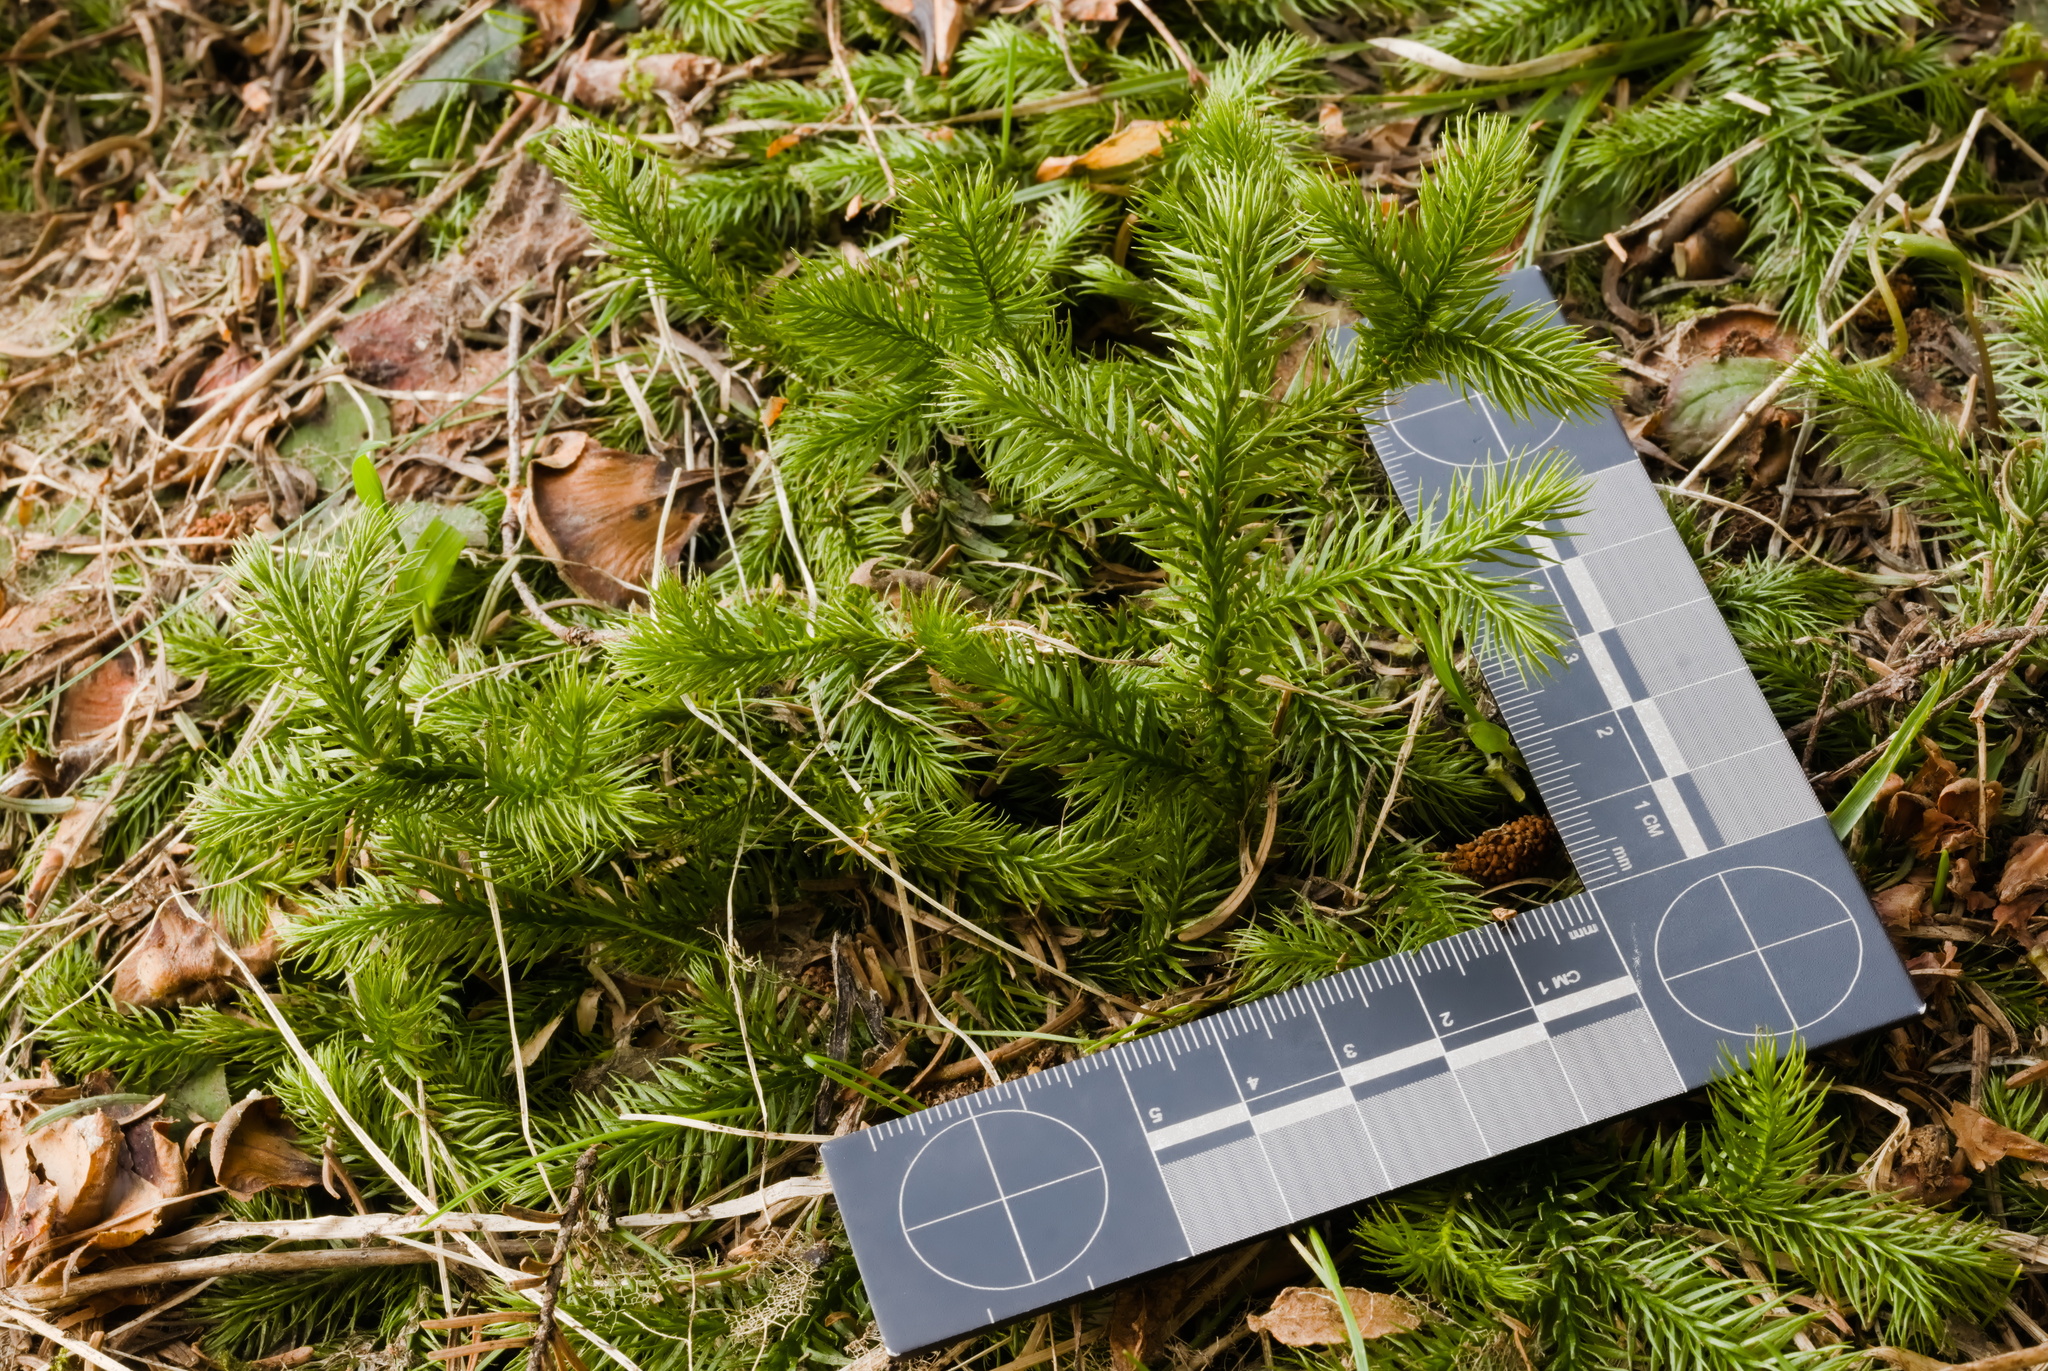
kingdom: Plantae
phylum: Tracheophyta
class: Lycopodiopsida
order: Lycopodiales
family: Lycopodiaceae
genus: Lycopodium
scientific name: Lycopodium clavatum
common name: Stag's-horn clubmoss
